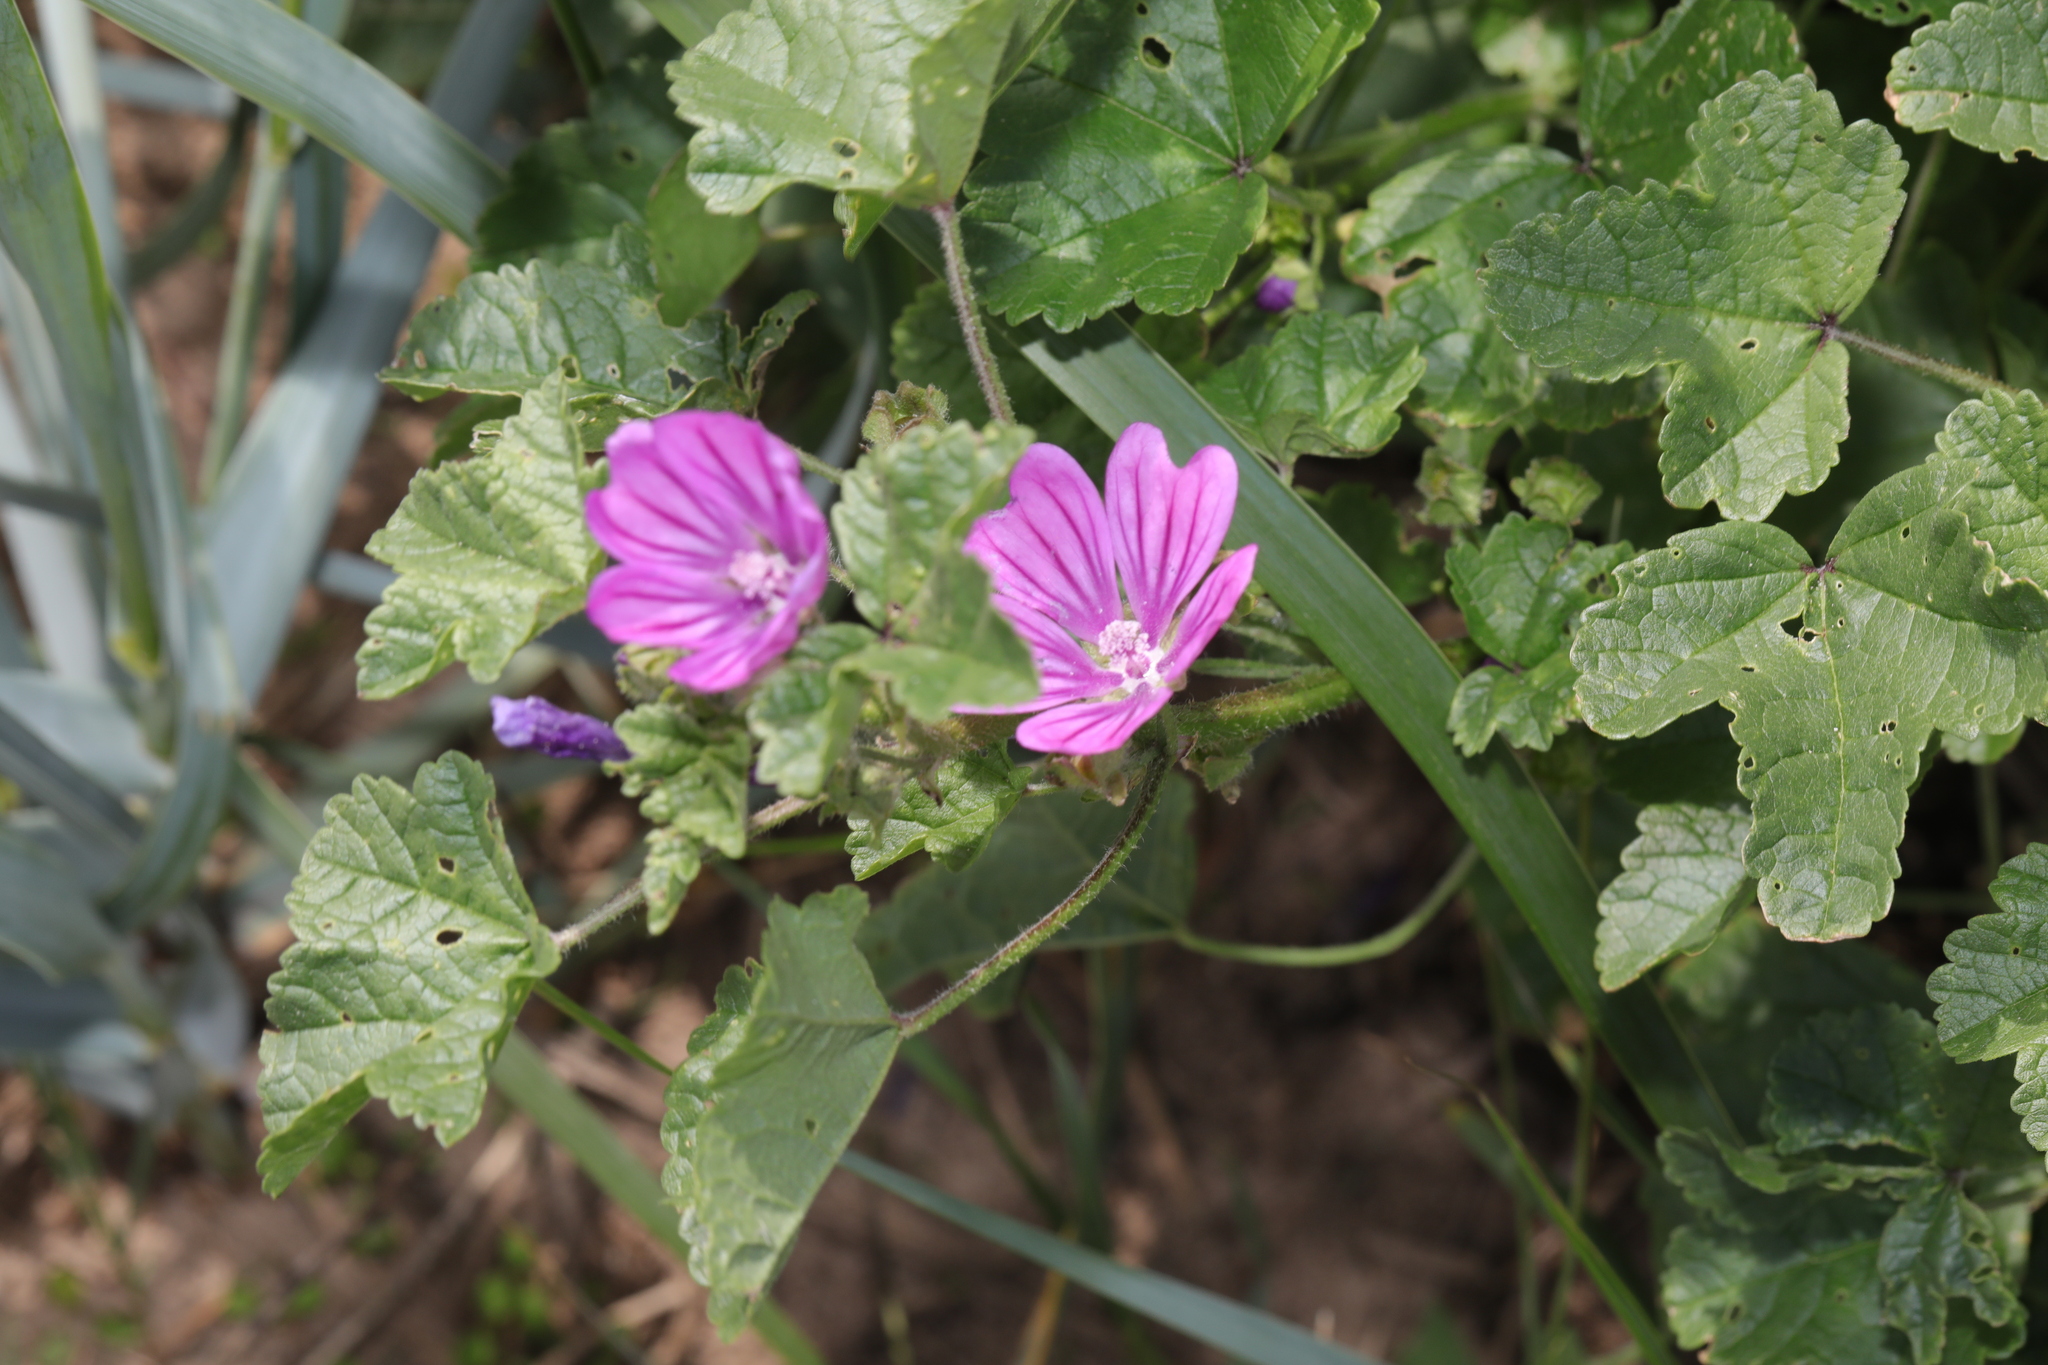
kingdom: Plantae
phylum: Tracheophyta
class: Magnoliopsida
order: Malvales
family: Malvaceae
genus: Malva
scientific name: Malva sylvestris
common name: Common mallow
